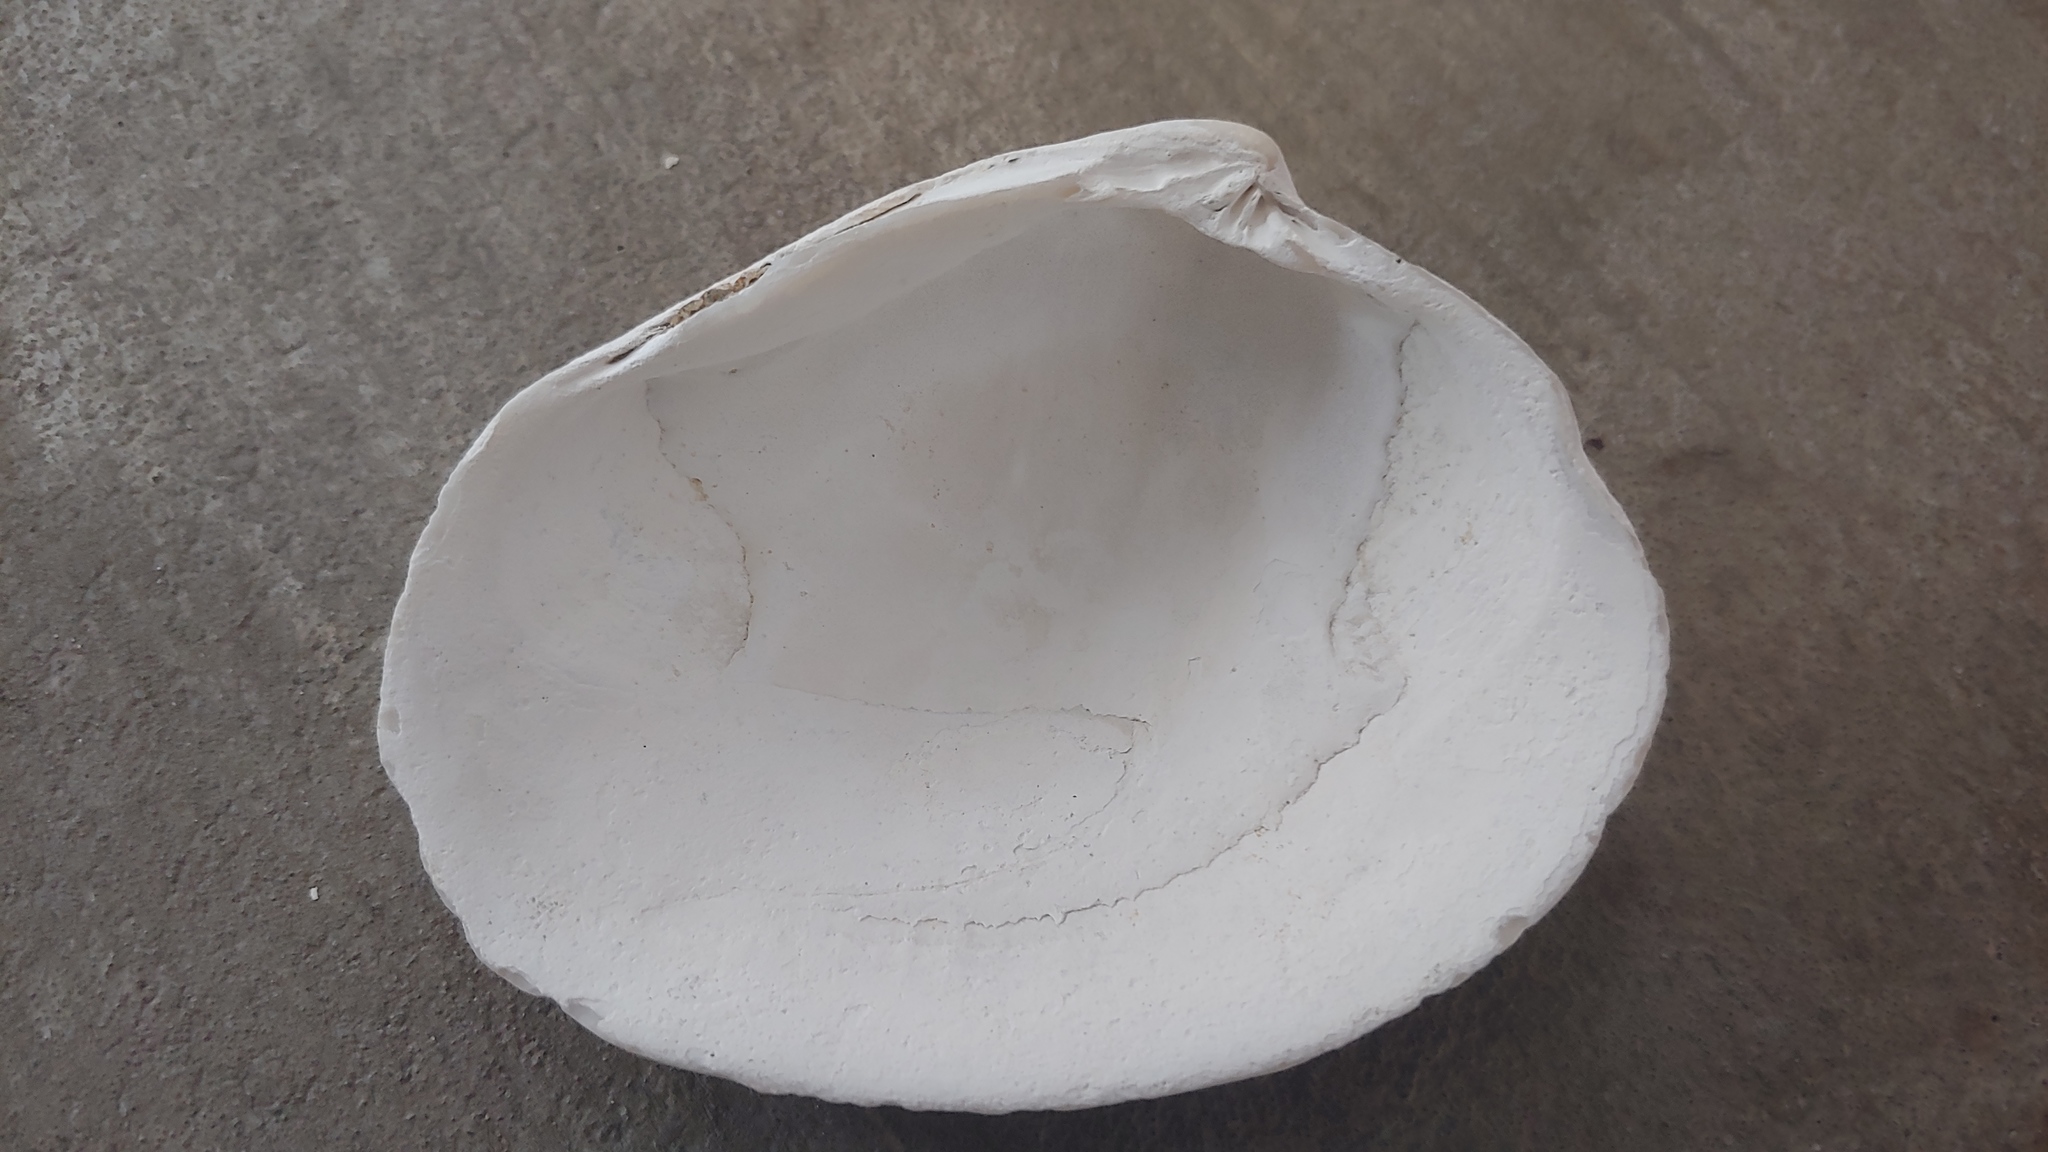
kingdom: Animalia
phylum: Mollusca
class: Bivalvia
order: Venerida
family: Veneridae
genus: Saxidomus
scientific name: Saxidomus gigantea
